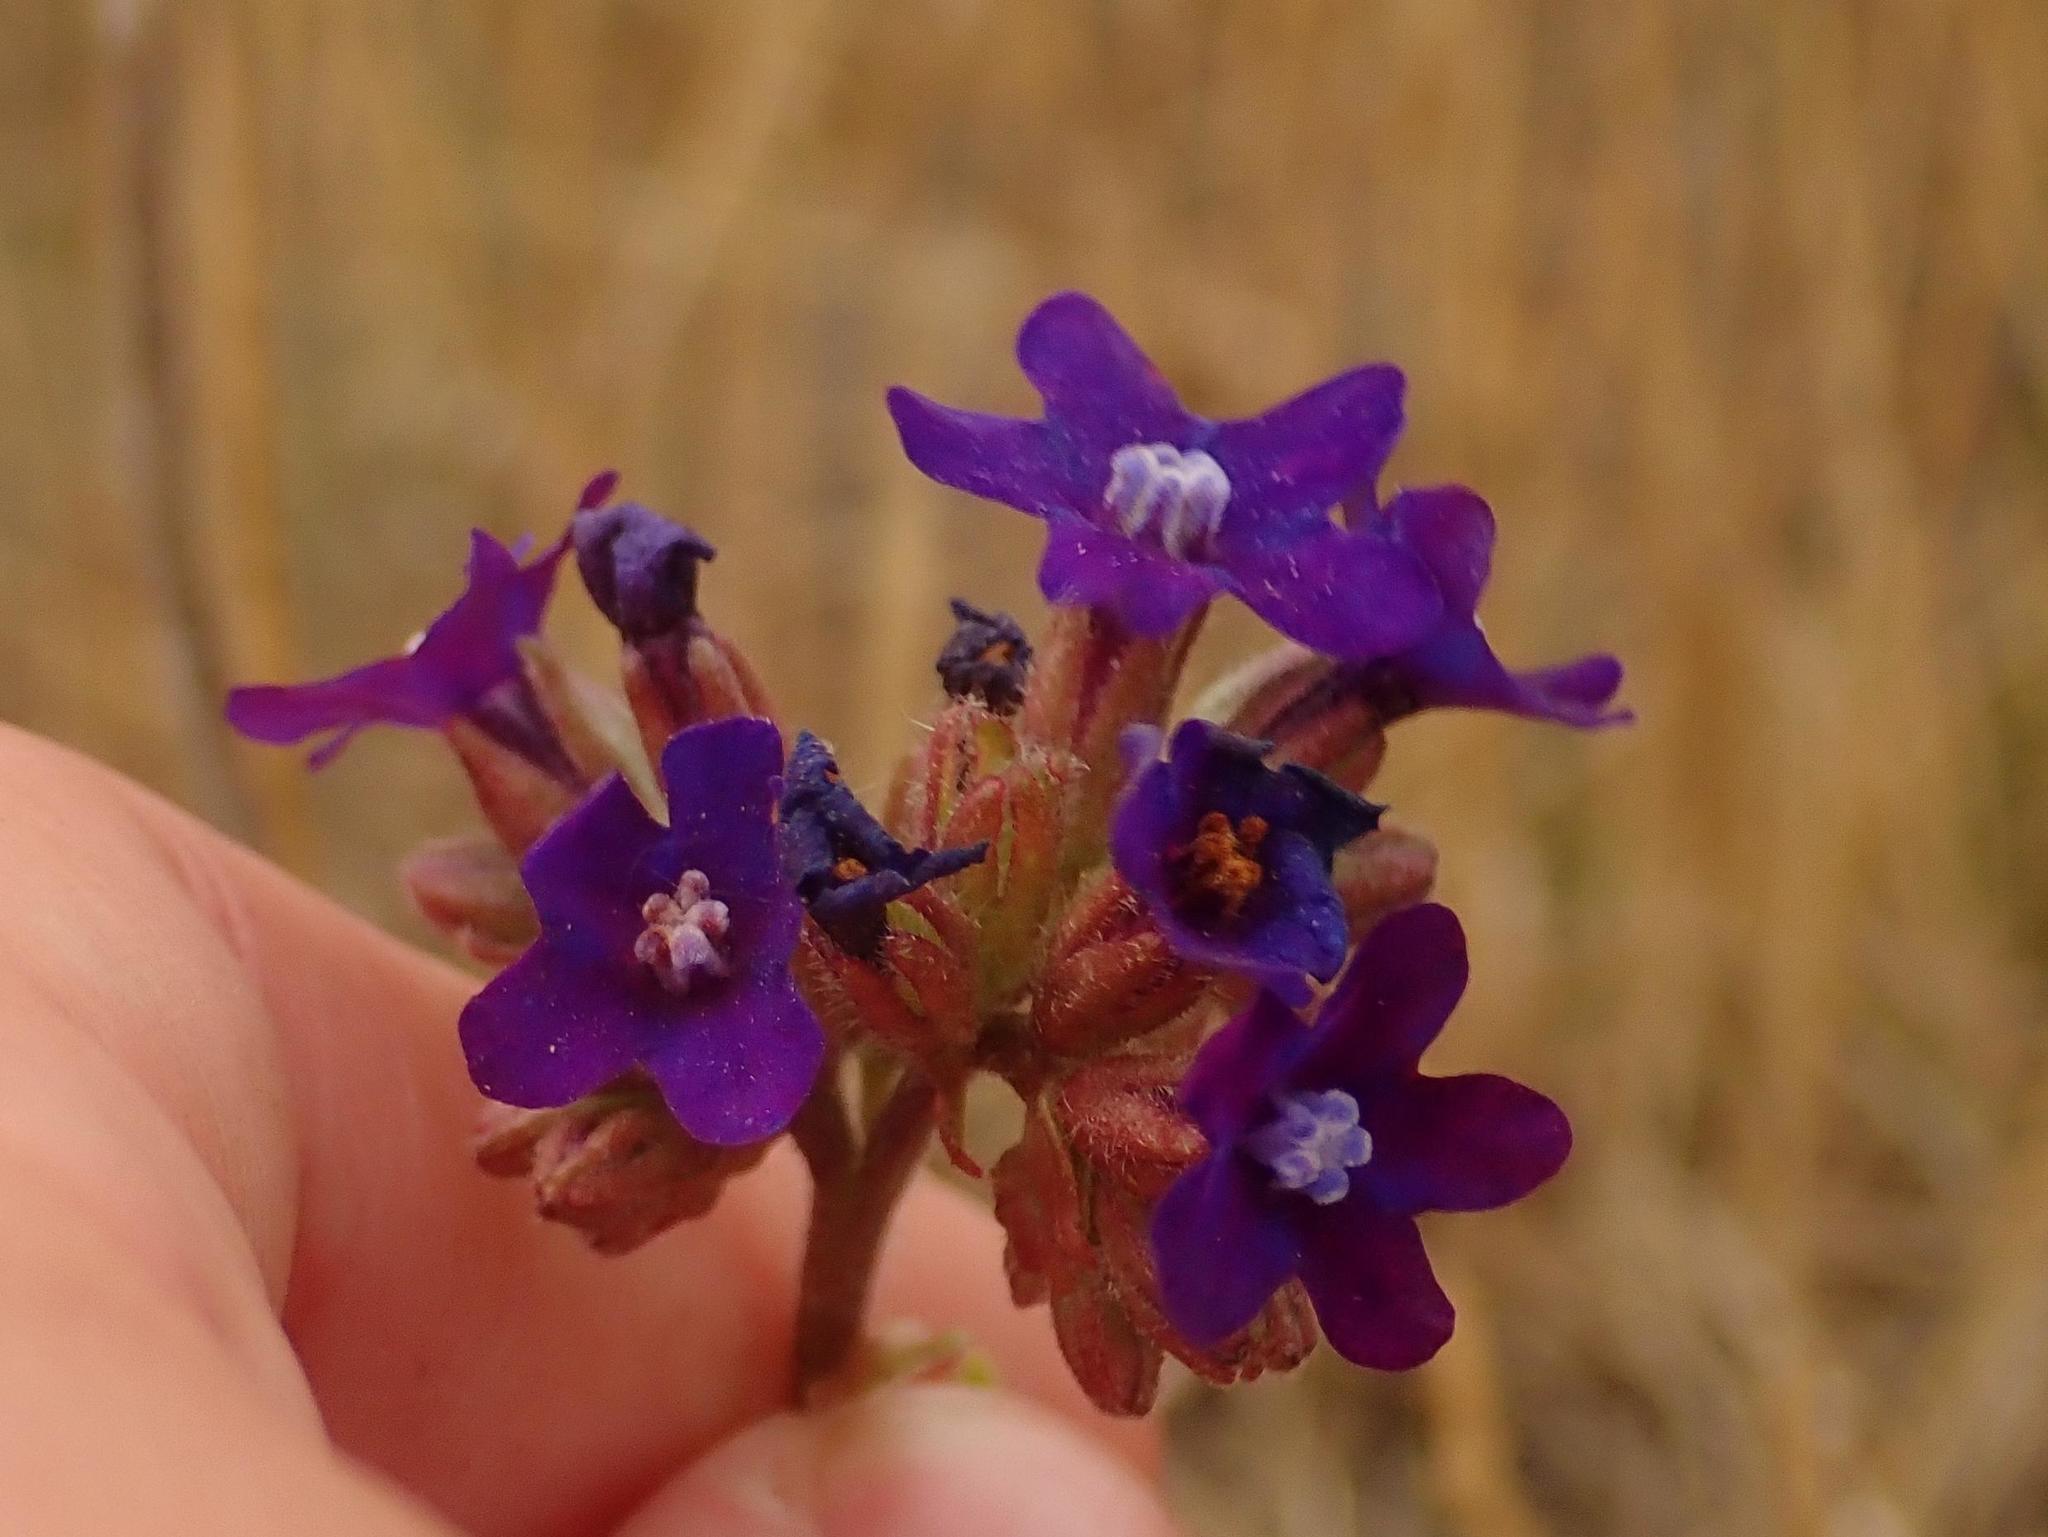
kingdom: Plantae
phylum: Tracheophyta
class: Magnoliopsida
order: Boraginales
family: Boraginaceae
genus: Anchusa
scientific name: Anchusa officinalis
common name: Alkanet
